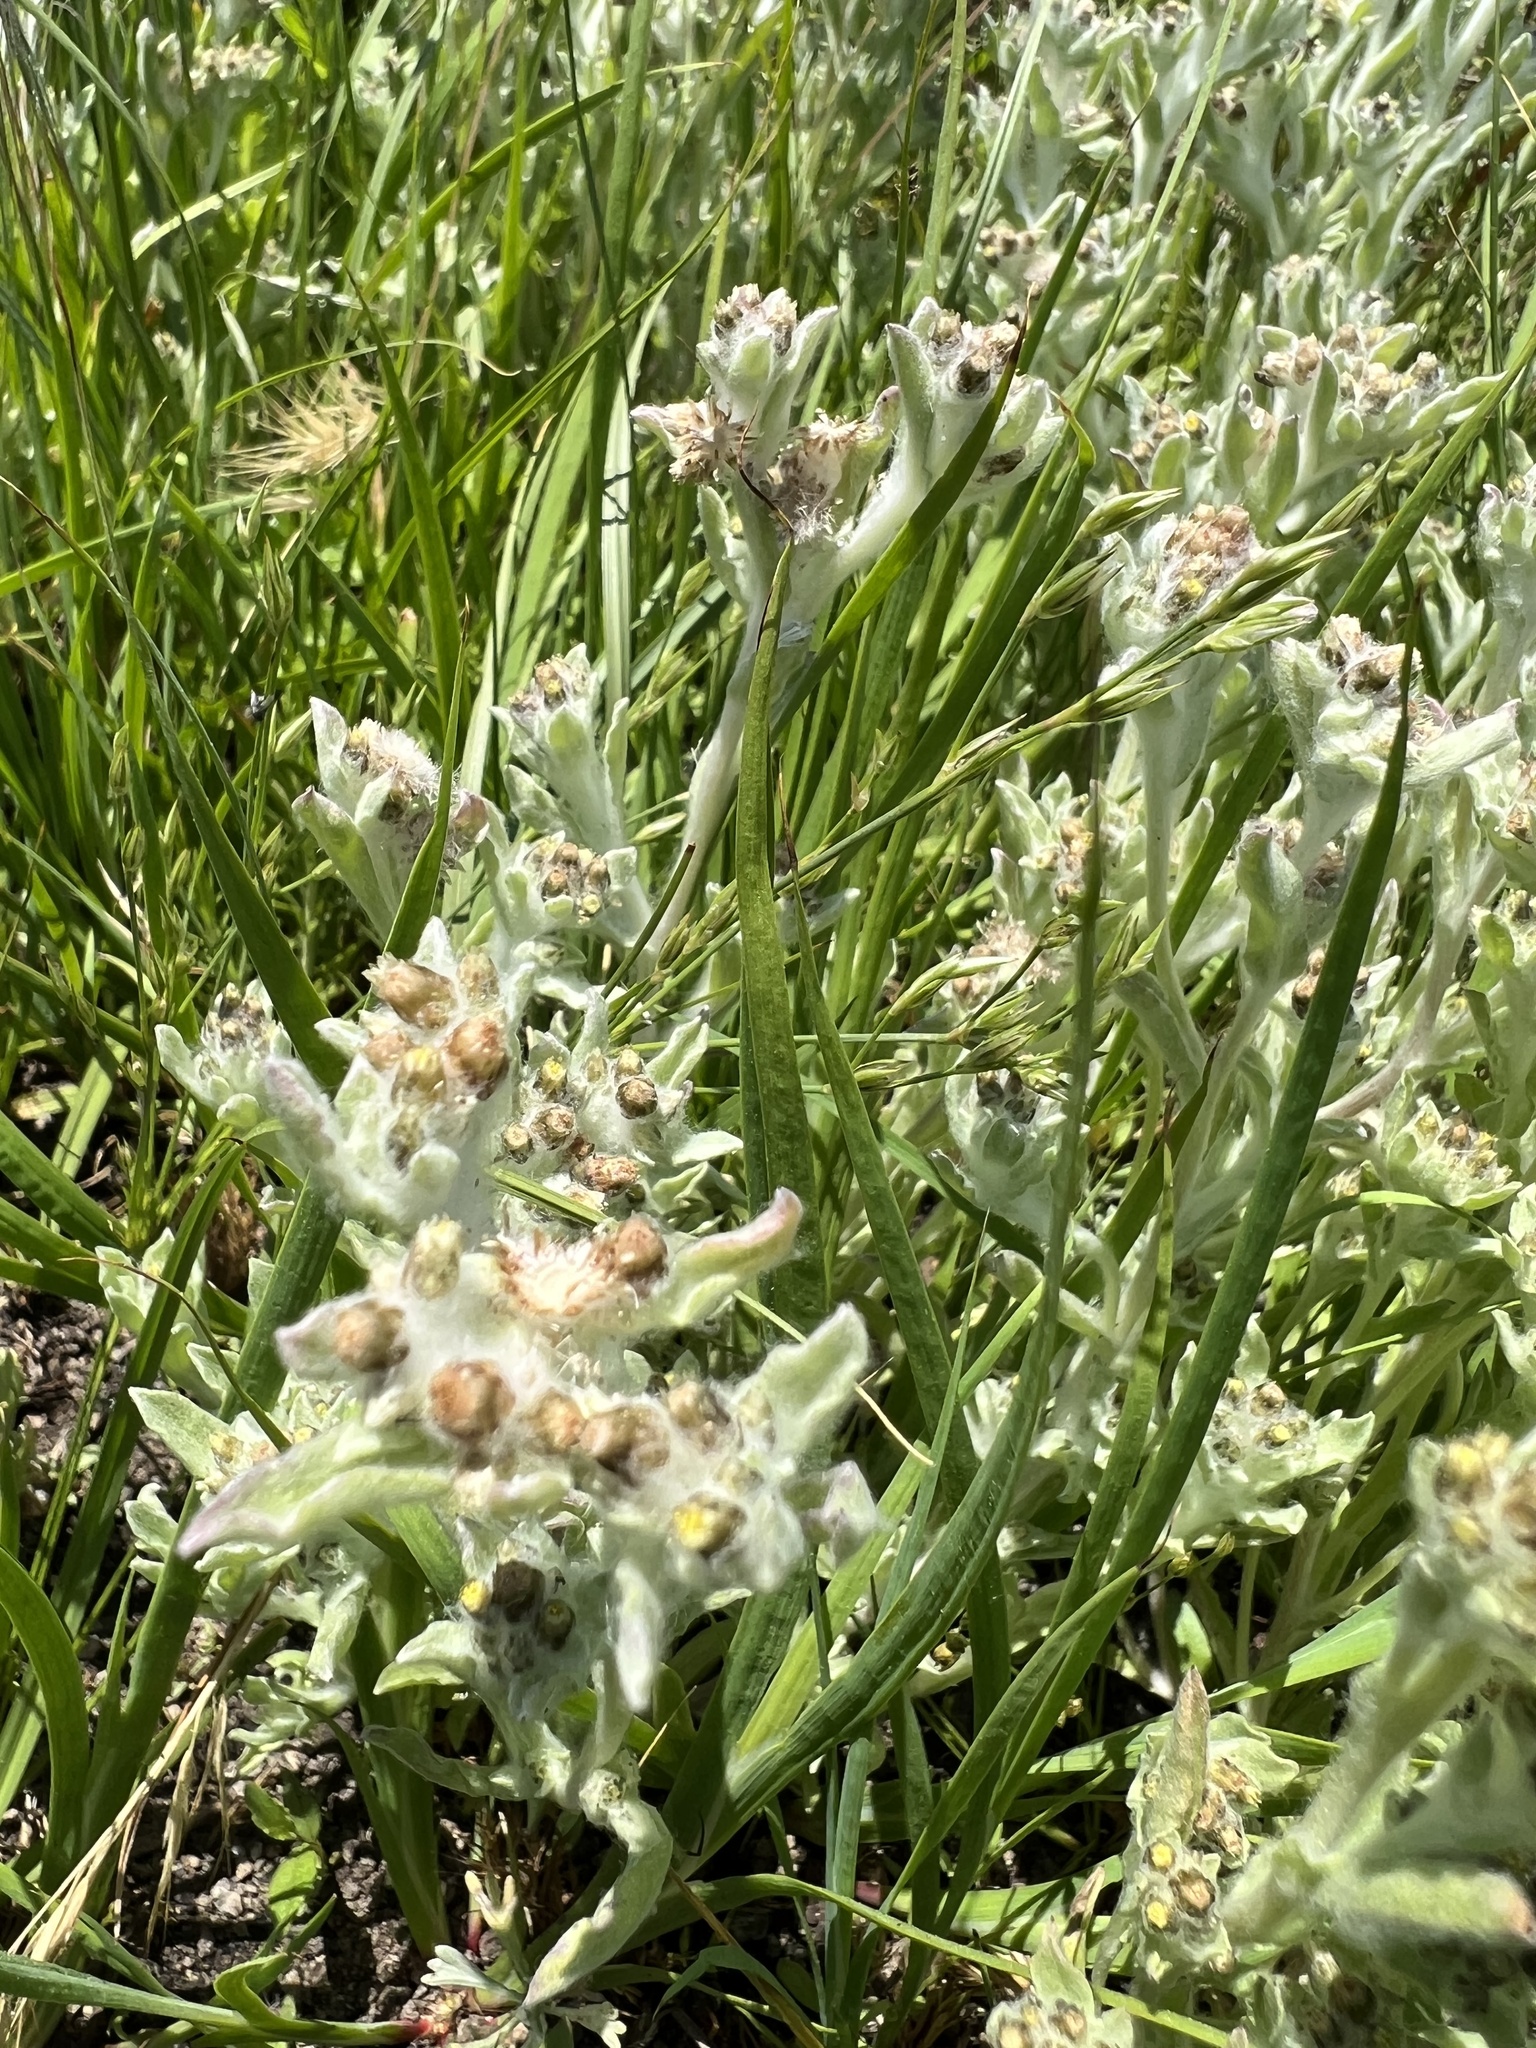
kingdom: Plantae
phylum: Tracheophyta
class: Magnoliopsida
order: Asterales
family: Asteraceae
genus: Gnaphalium
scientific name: Gnaphalium palustre
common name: Western marsh cudweed
